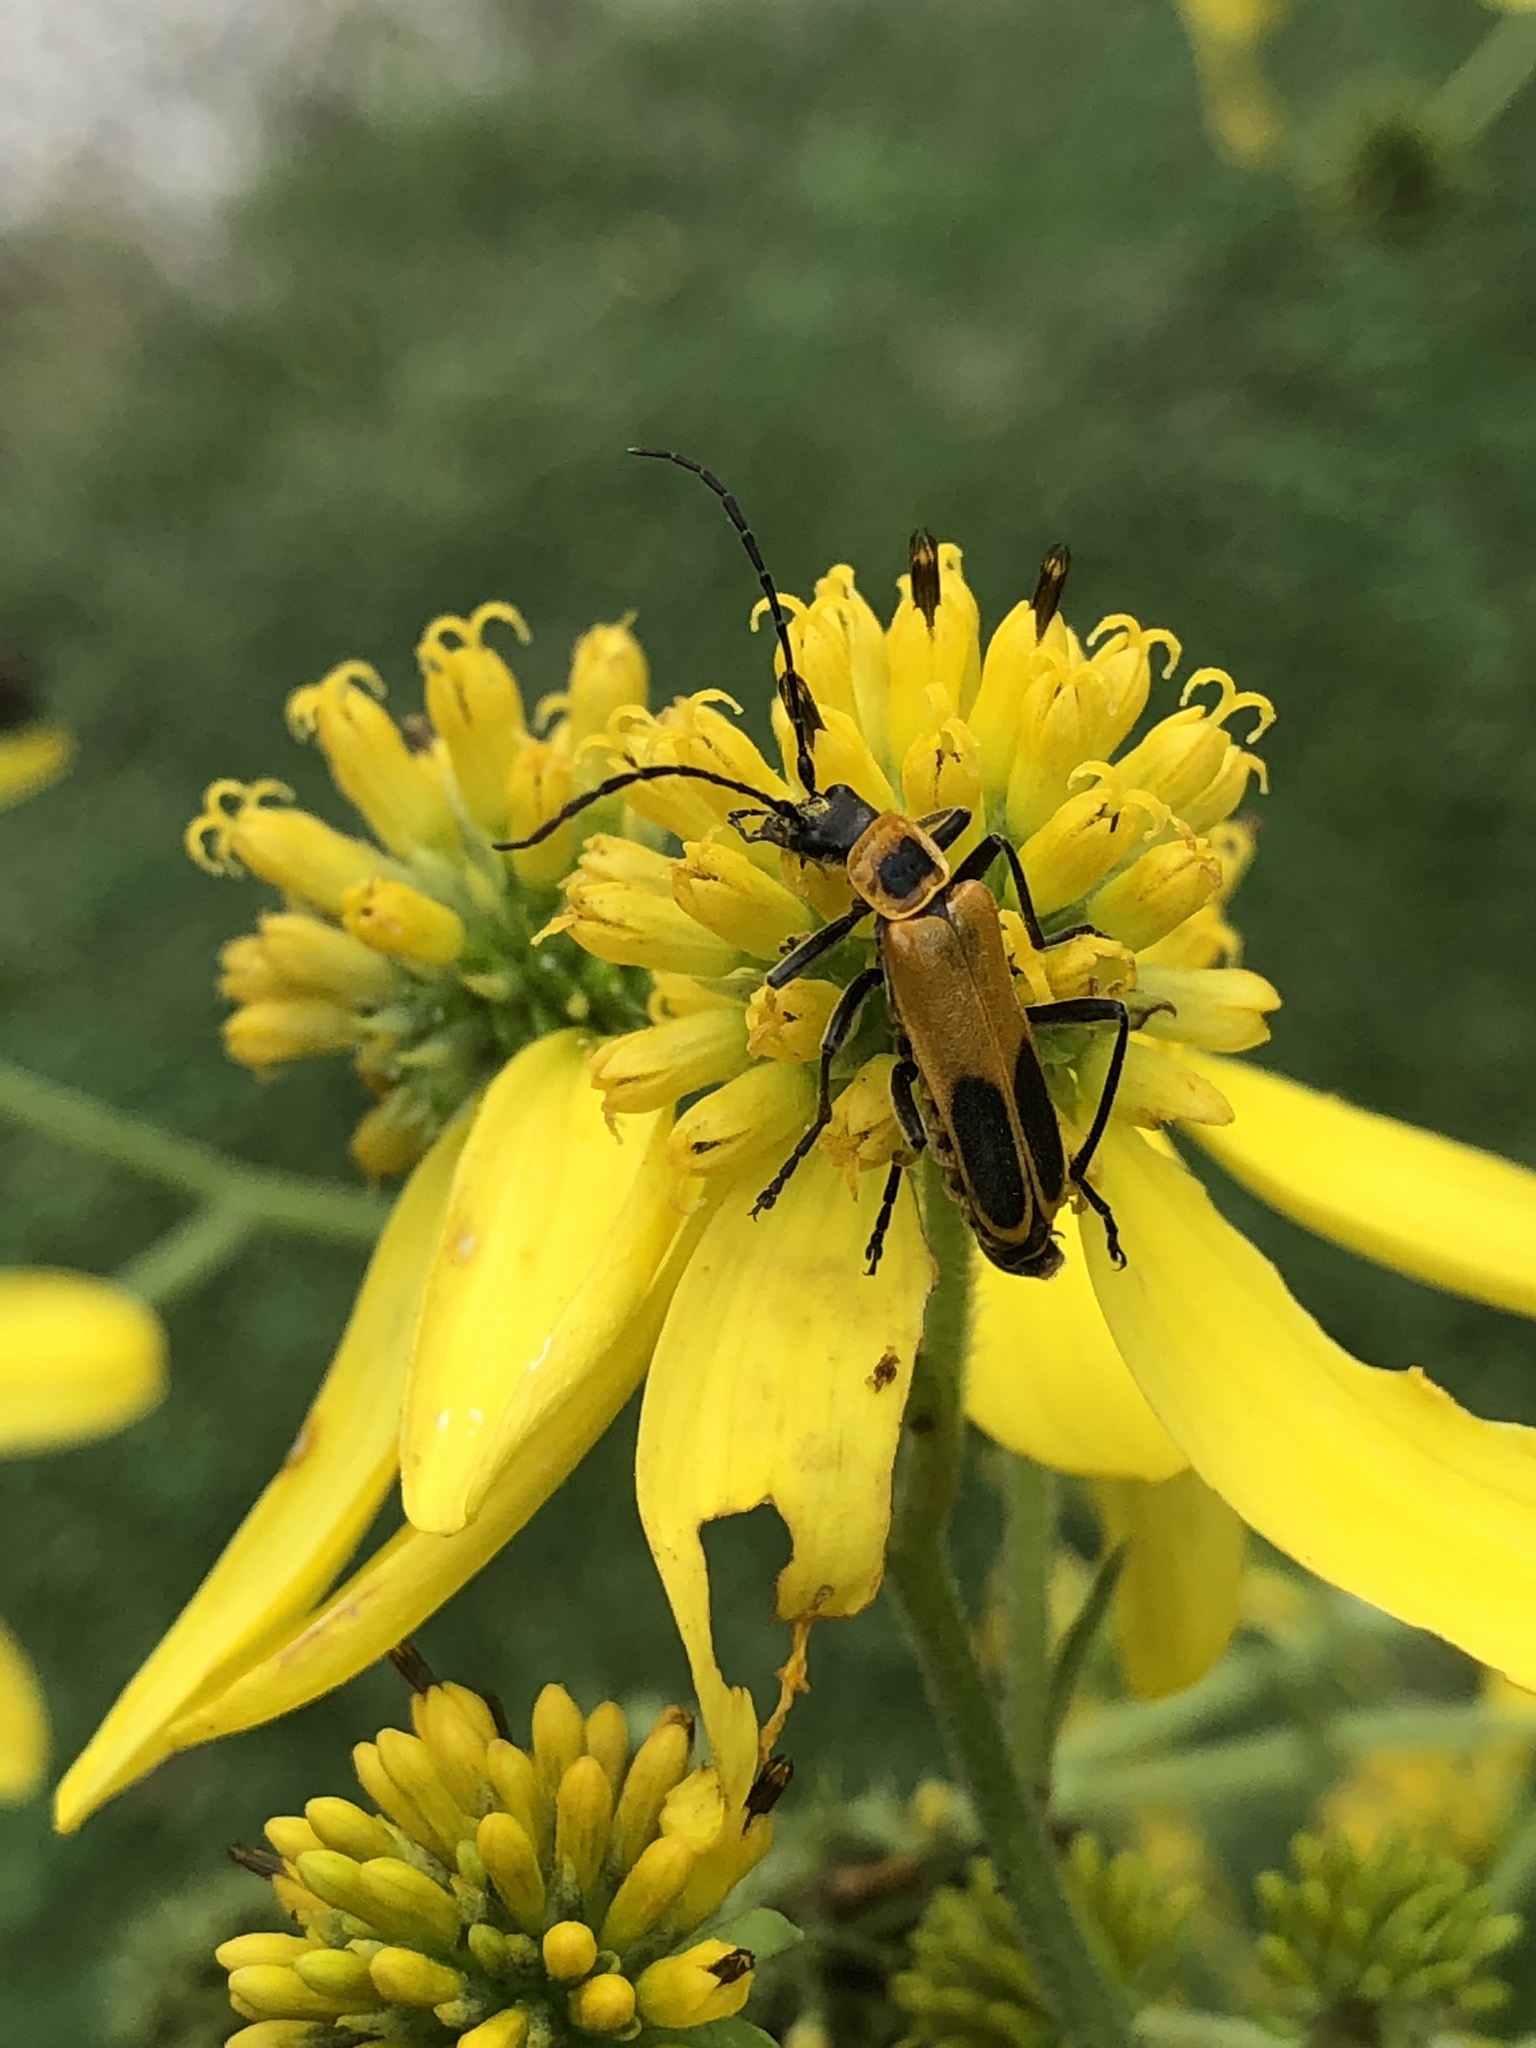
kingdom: Animalia
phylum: Arthropoda
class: Insecta
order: Coleoptera
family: Cantharidae
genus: Chauliognathus
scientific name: Chauliognathus pensylvanicus
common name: Goldenrod soldier beetle
